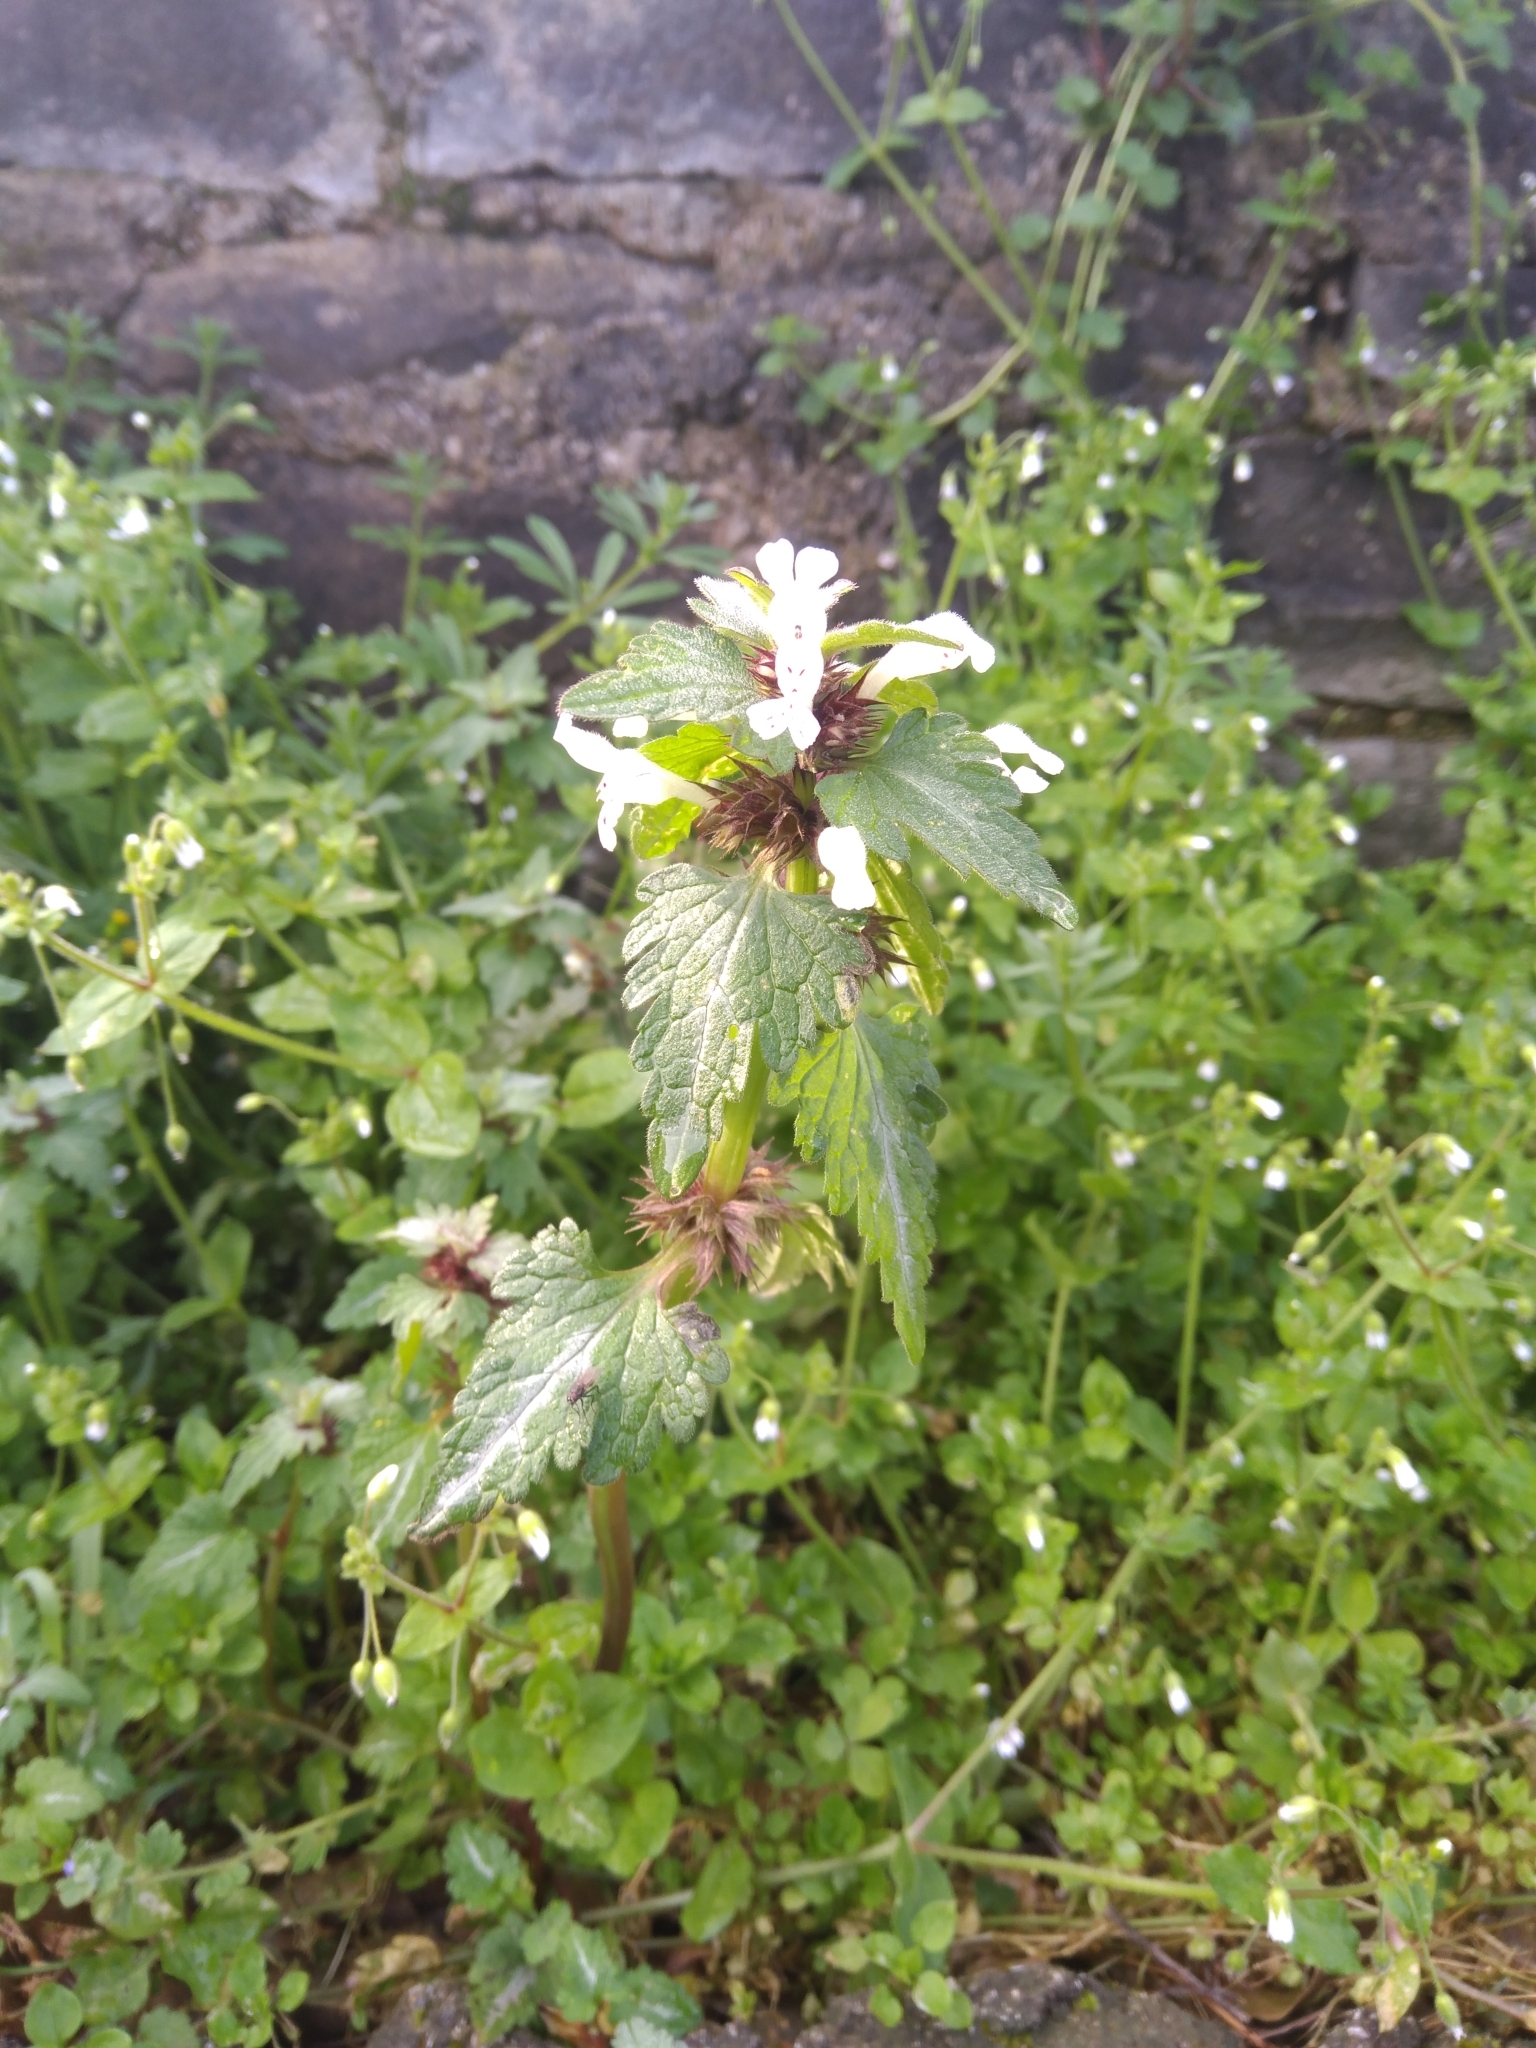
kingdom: Plantae
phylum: Tracheophyta
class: Magnoliopsida
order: Lamiales
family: Lamiaceae
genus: Lamium
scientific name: Lamium bifidum
